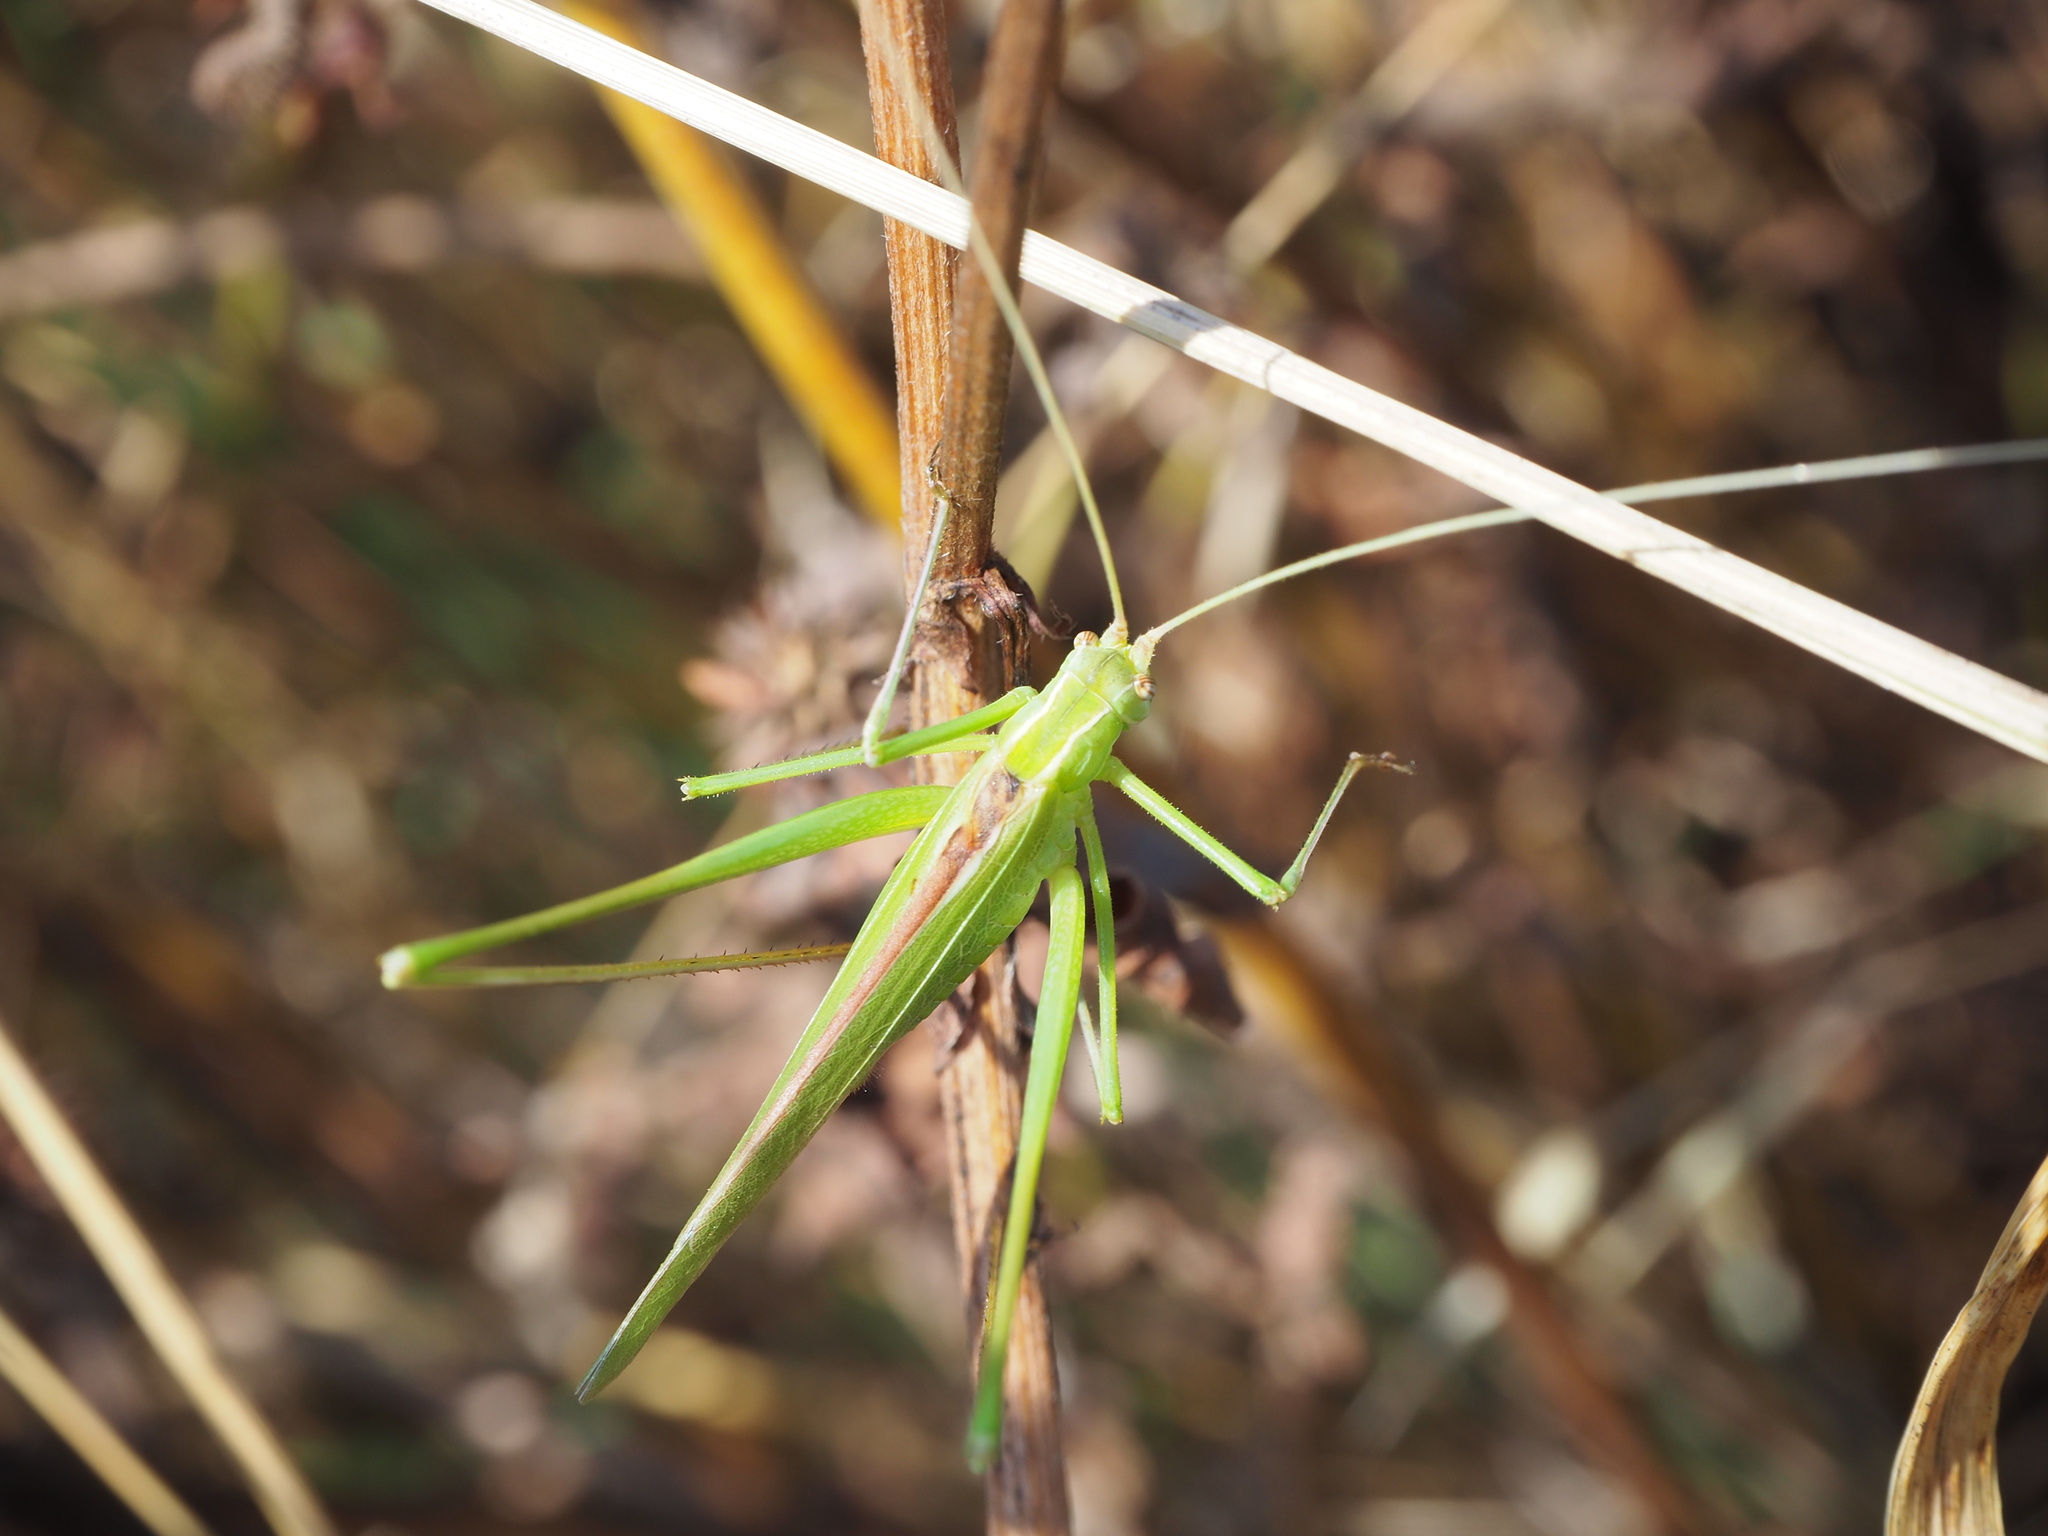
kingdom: Animalia
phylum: Arthropoda
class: Insecta
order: Orthoptera
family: Tettigoniidae
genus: Tylopsis
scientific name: Tylopsis lilifolia
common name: Lily bush-cricket
